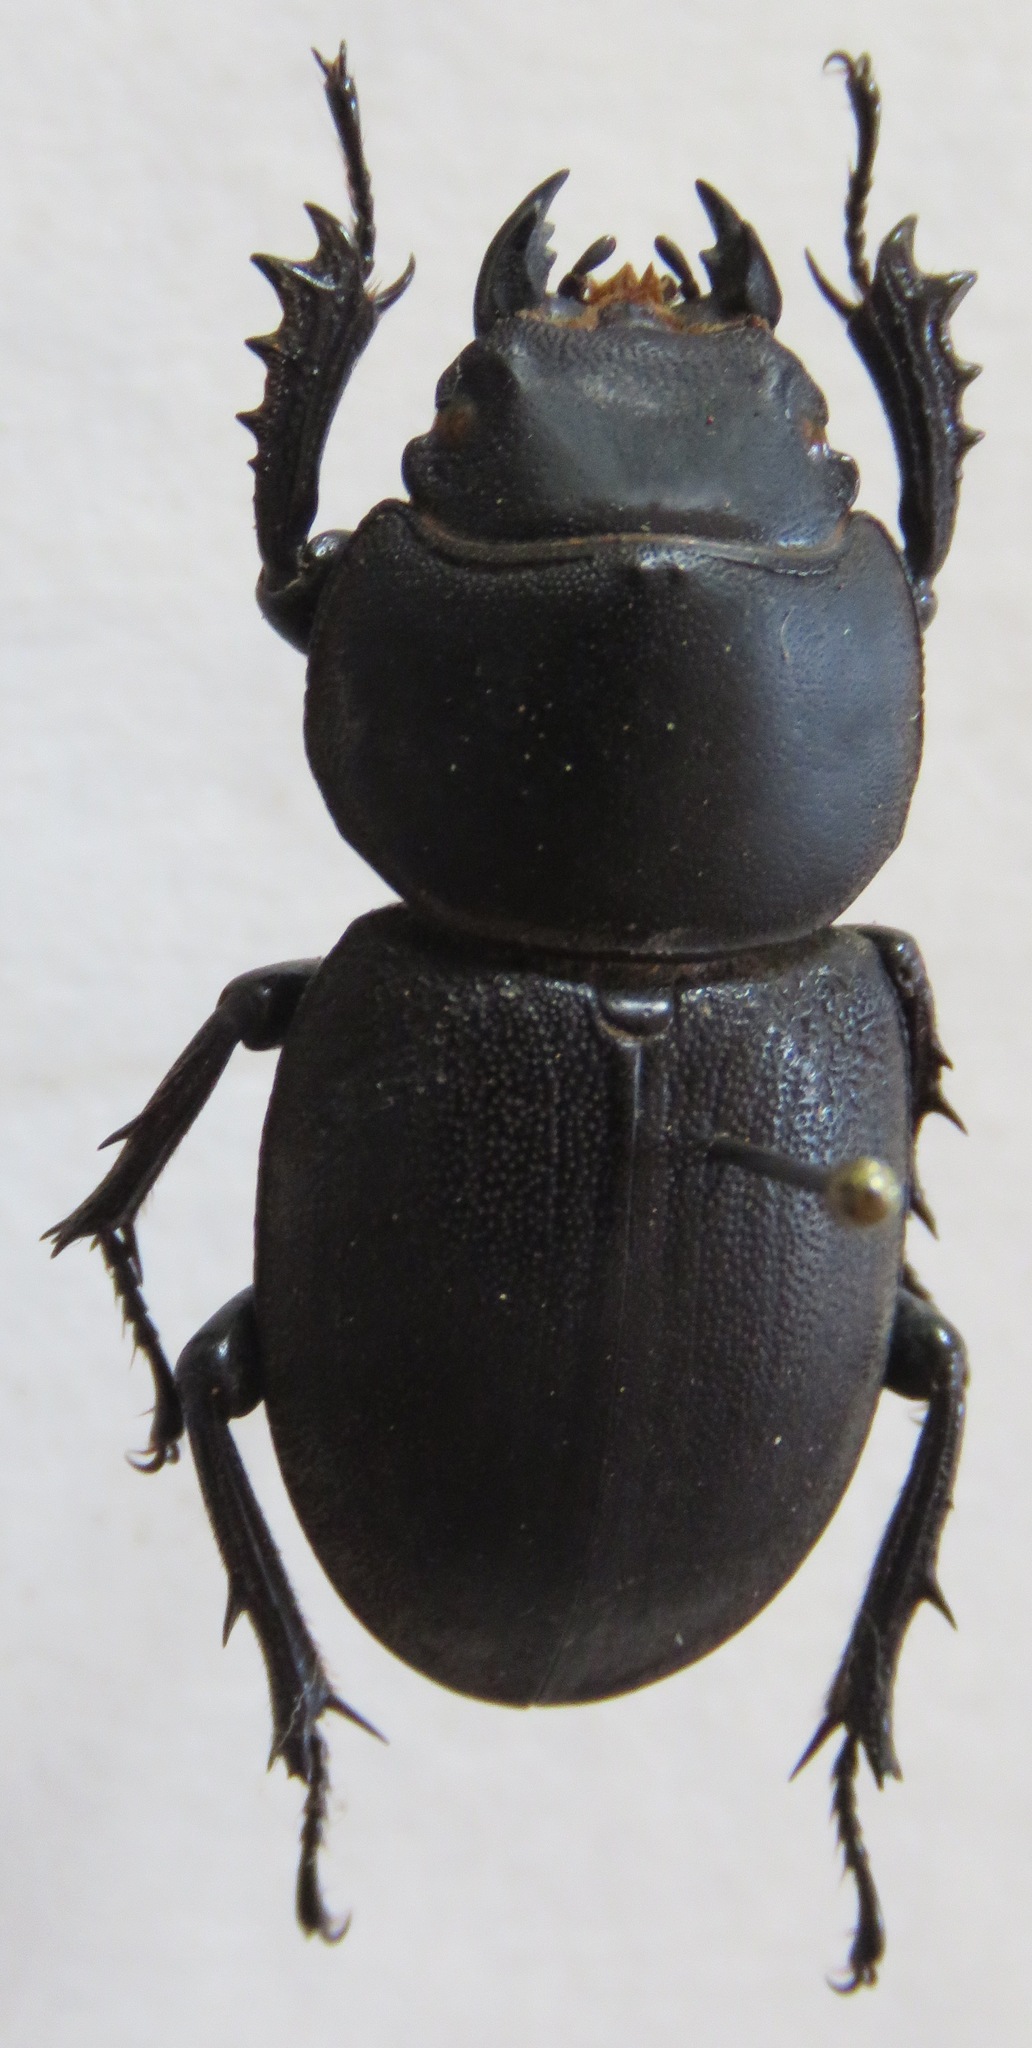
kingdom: Animalia
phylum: Arthropoda
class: Insecta
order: Coleoptera
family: Lucanidae
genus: Apterodorcus
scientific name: Apterodorcus bacchus
